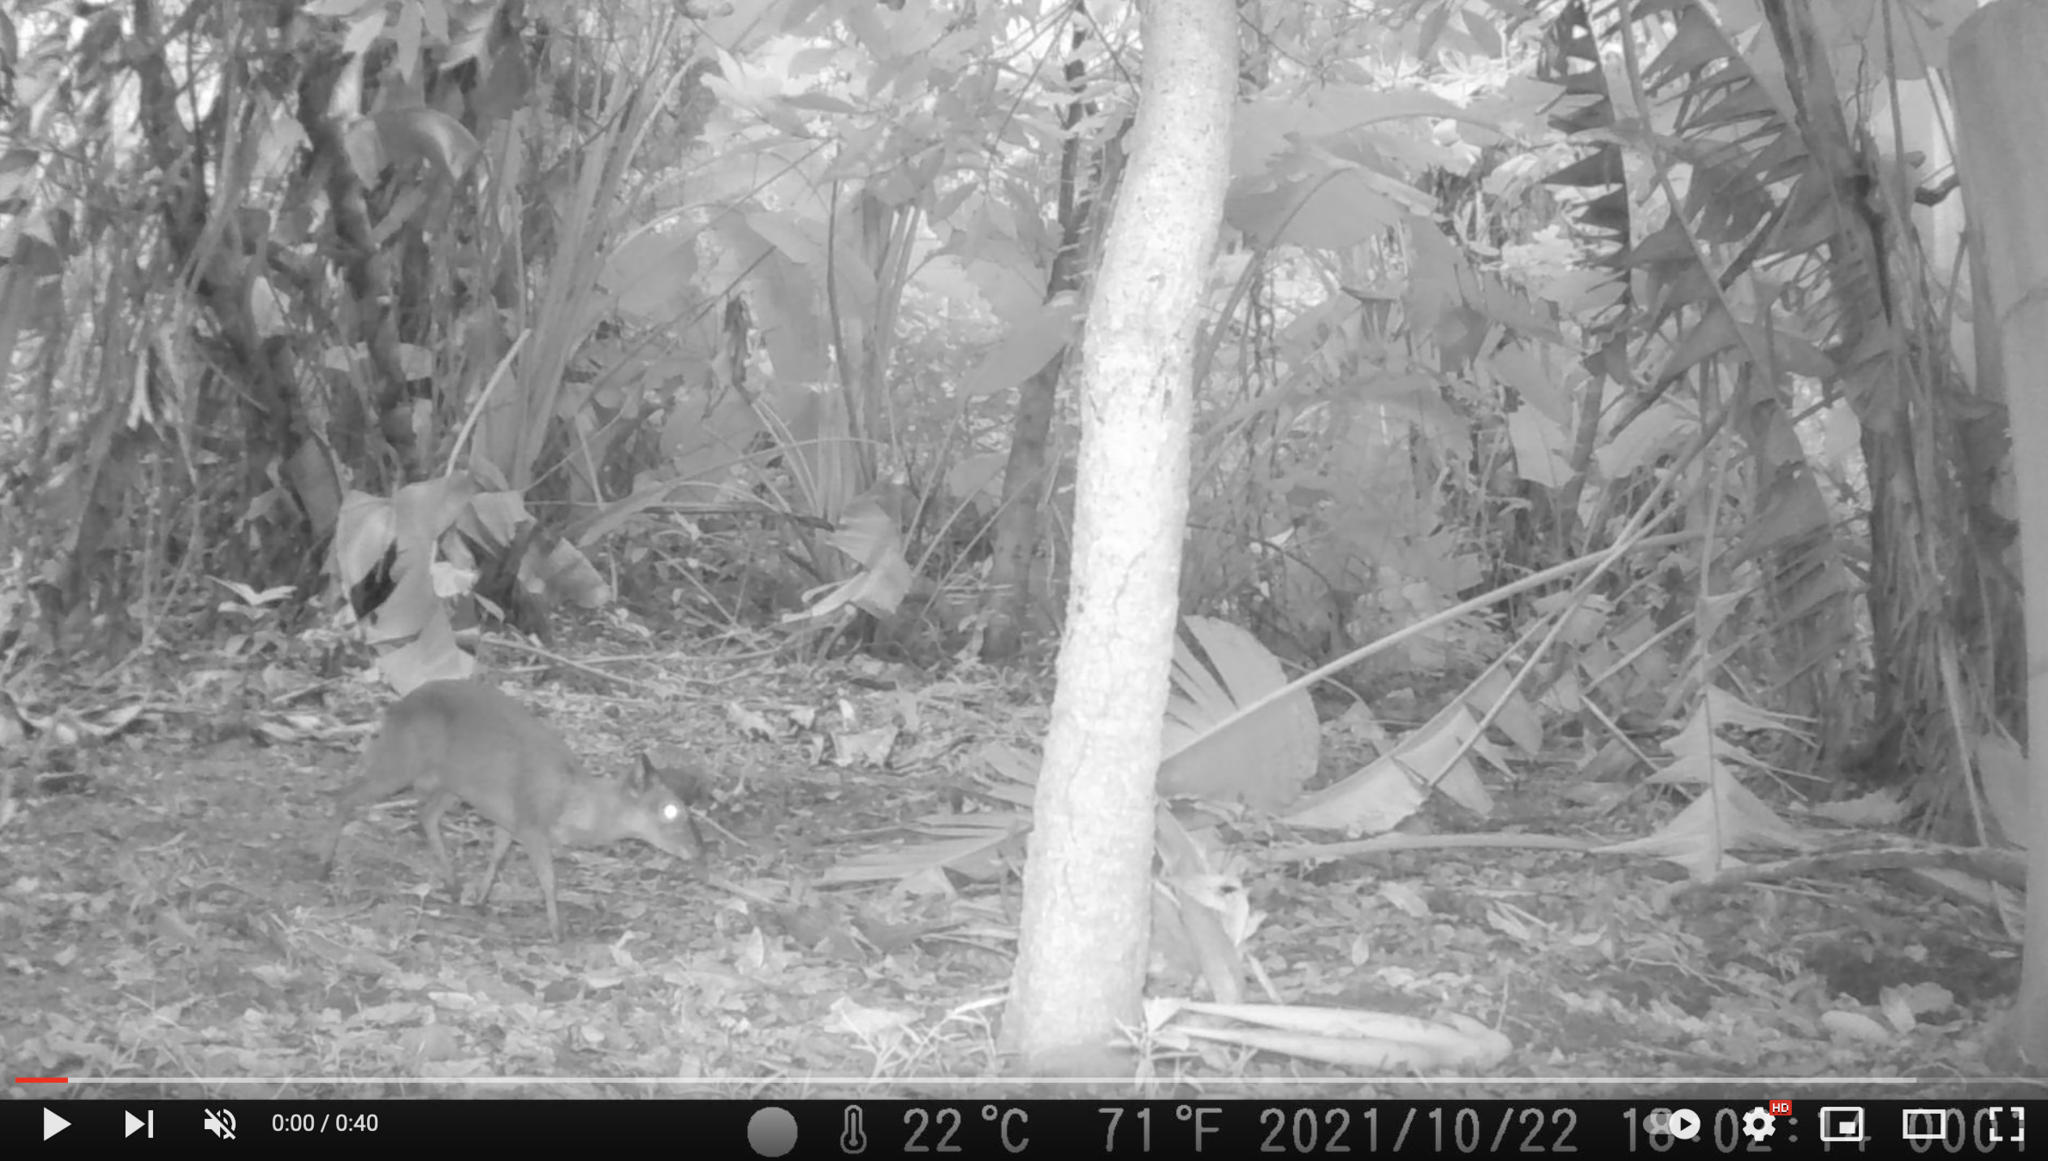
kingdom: Animalia
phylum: Chordata
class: Mammalia
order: Artiodactyla
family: Bovidae
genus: Philantomba
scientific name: Philantomba monticola
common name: Blue duiker
